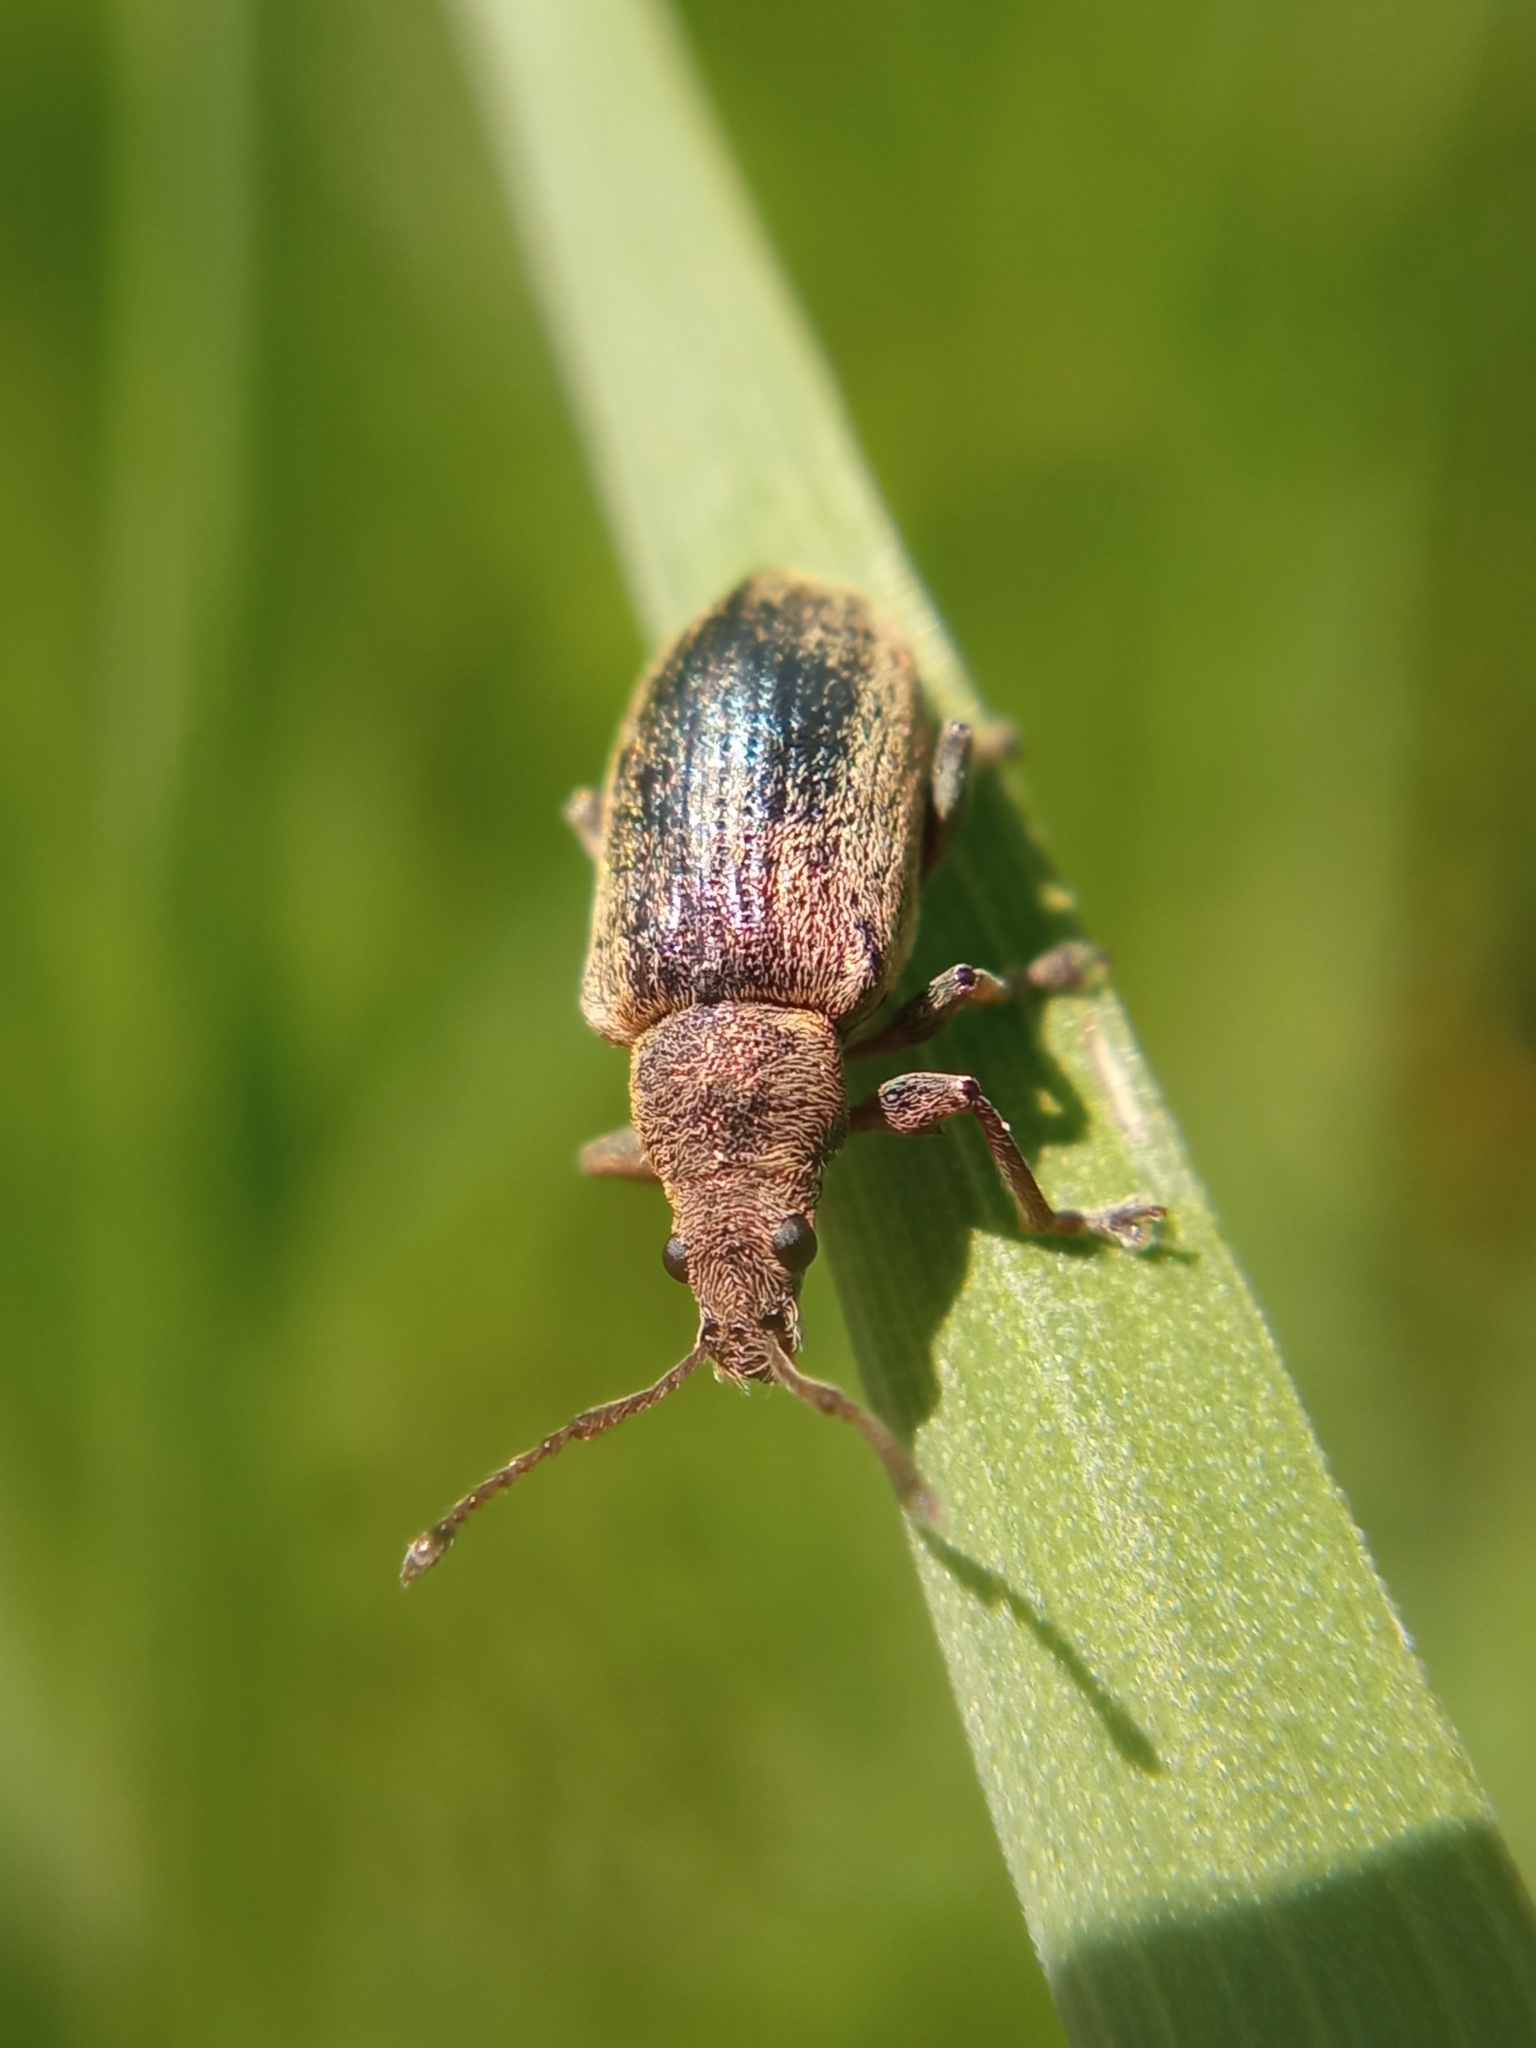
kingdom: Animalia
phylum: Arthropoda
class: Insecta
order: Coleoptera
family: Curculionidae
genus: Phyllobius
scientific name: Phyllobius pyri
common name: Common leaf weevil
